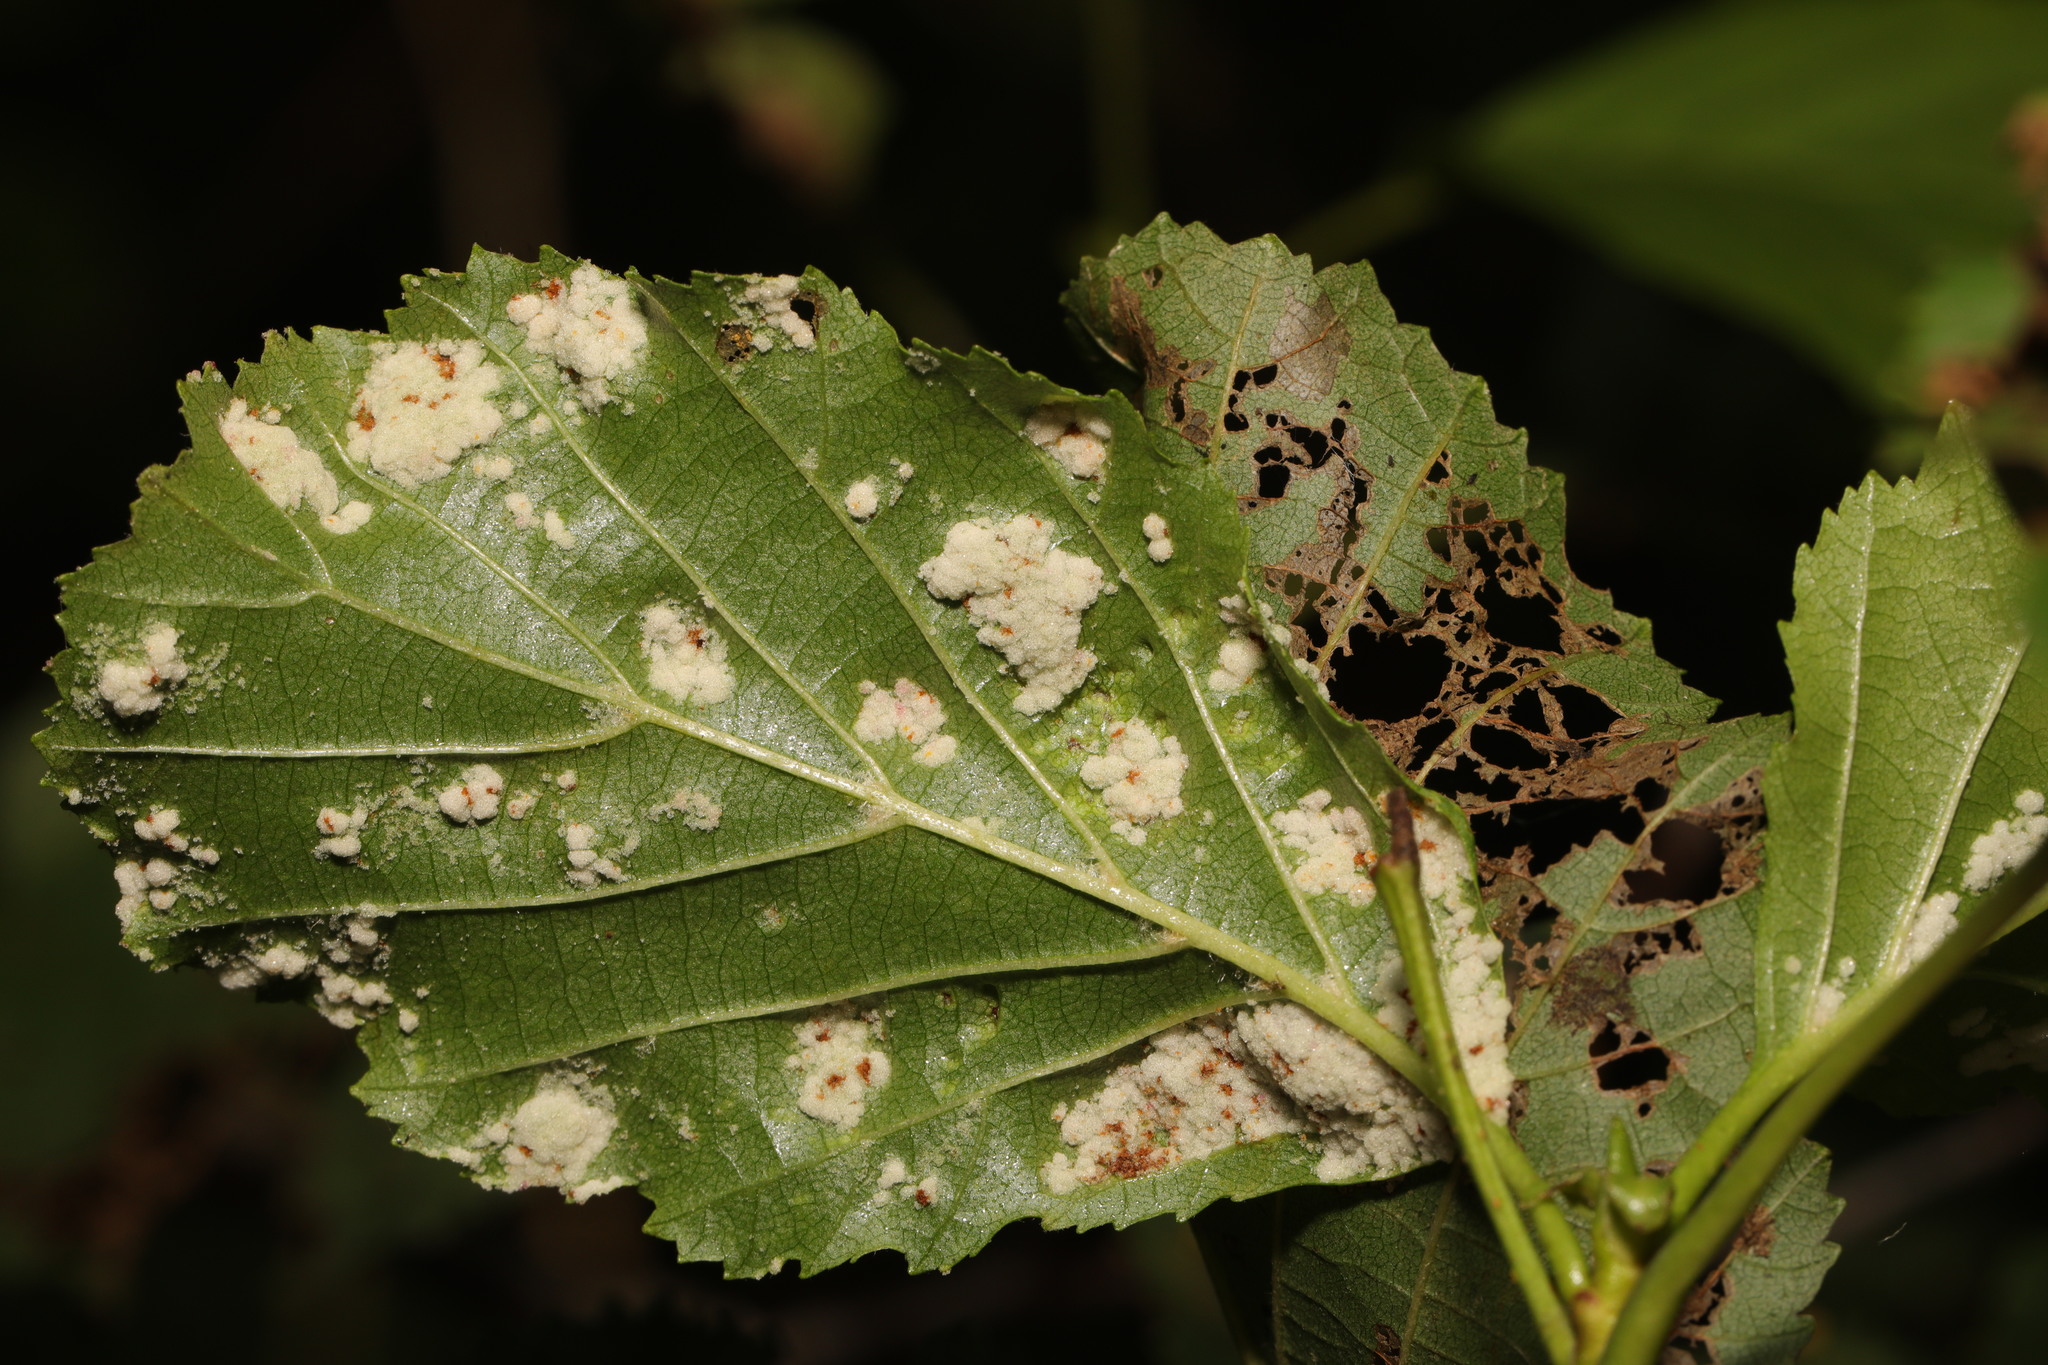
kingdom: Animalia
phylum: Arthropoda
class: Arachnida
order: Trombidiformes
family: Eriophyidae
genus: Acalitus
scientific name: Acalitus brevitarsus
